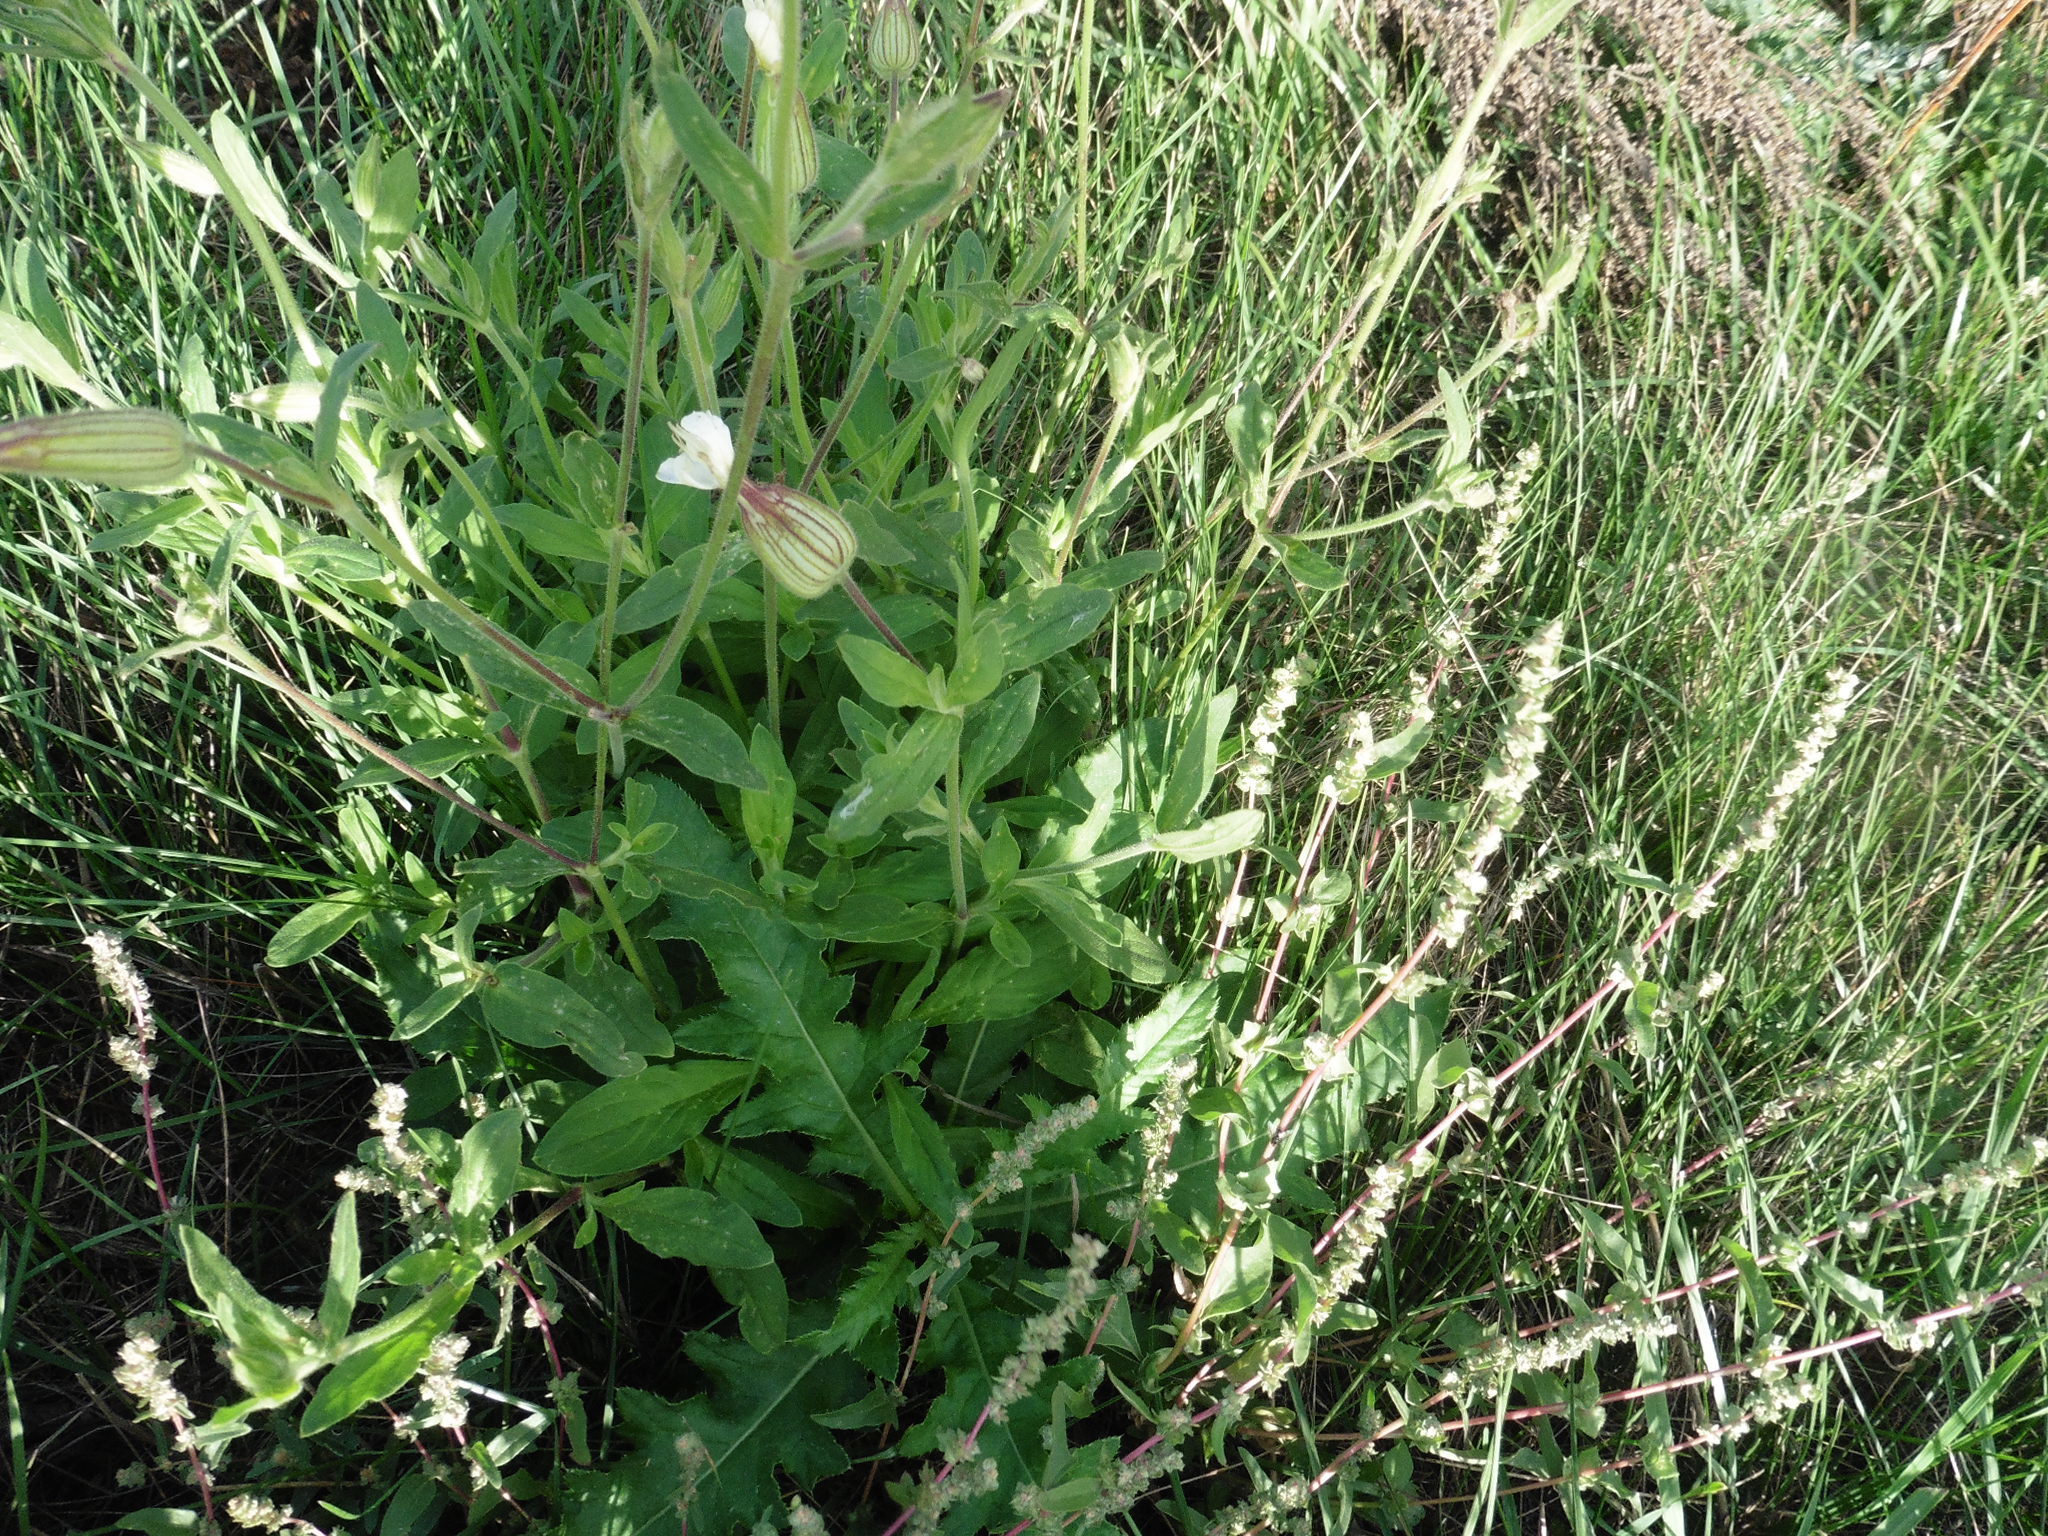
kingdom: Plantae
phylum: Tracheophyta
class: Magnoliopsida
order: Caryophyllales
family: Caryophyllaceae
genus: Silene
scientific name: Silene latifolia
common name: White campion
